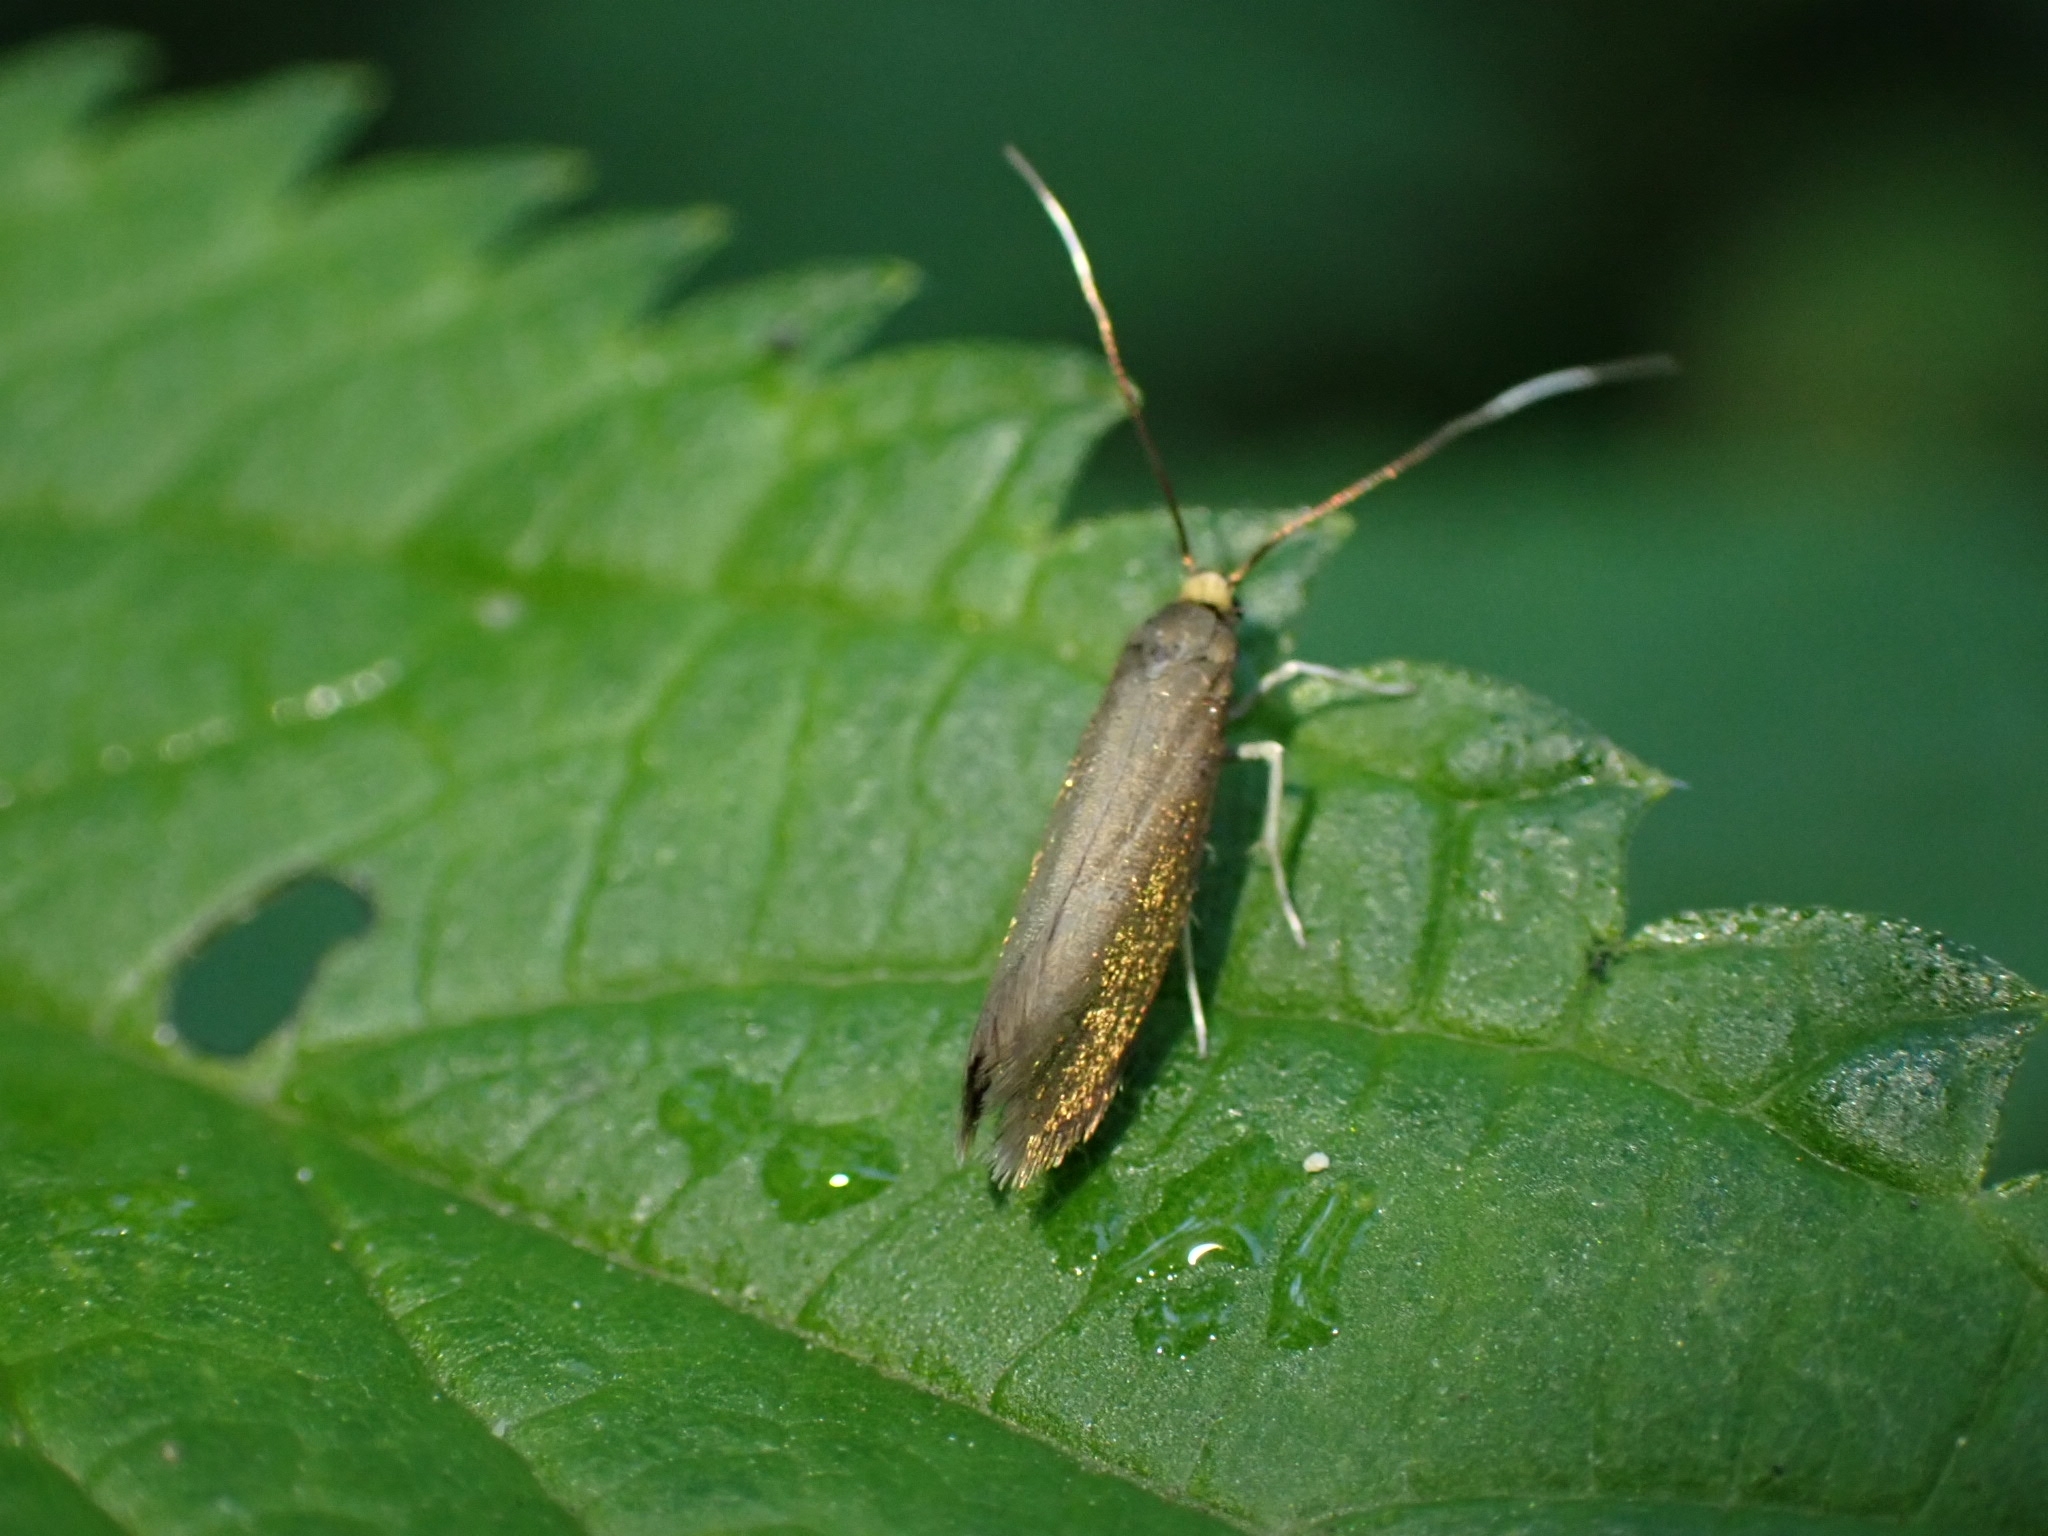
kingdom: Animalia
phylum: Arthropoda
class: Insecta
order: Lepidoptera
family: Roeslerstammiidae
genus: Roeslerstammia
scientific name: Roeslerstammia erxlebella
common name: Copper ermel
